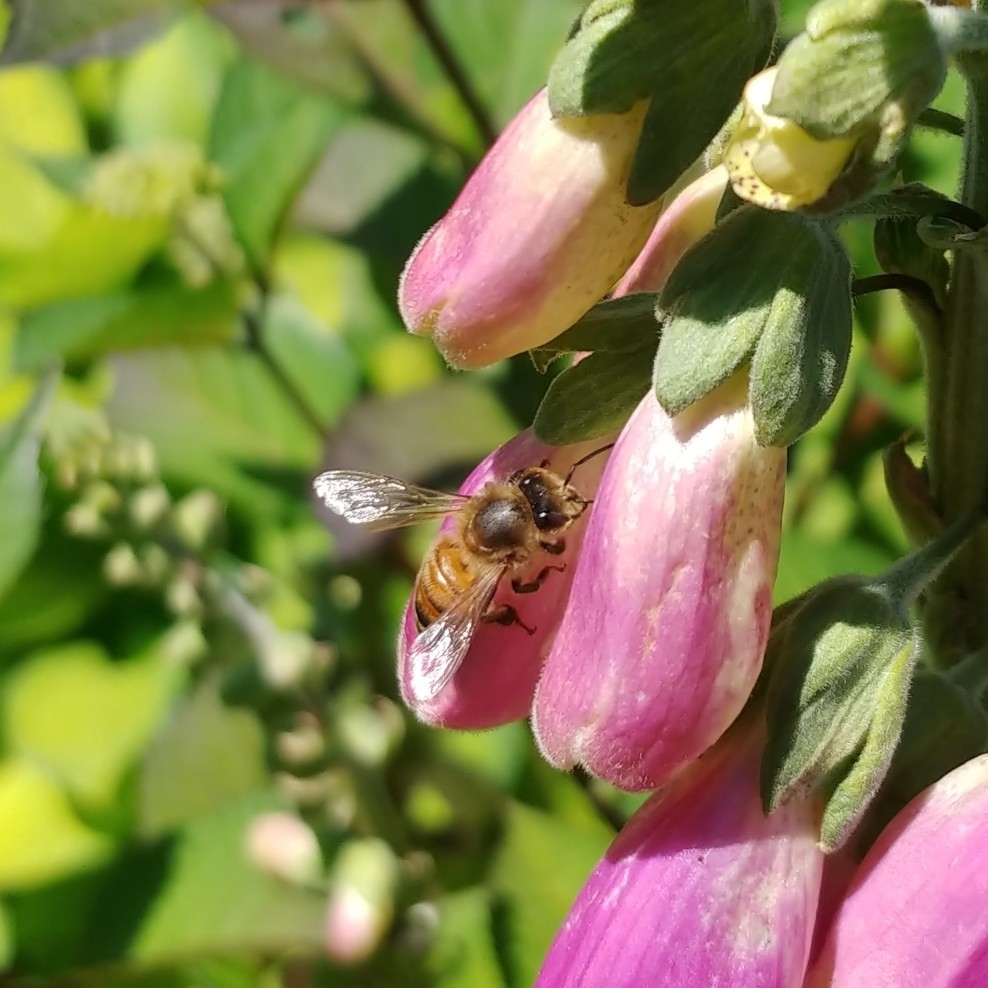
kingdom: Animalia
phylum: Arthropoda
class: Insecta
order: Hymenoptera
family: Apidae
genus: Apis
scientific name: Apis mellifera
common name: Honey bee
